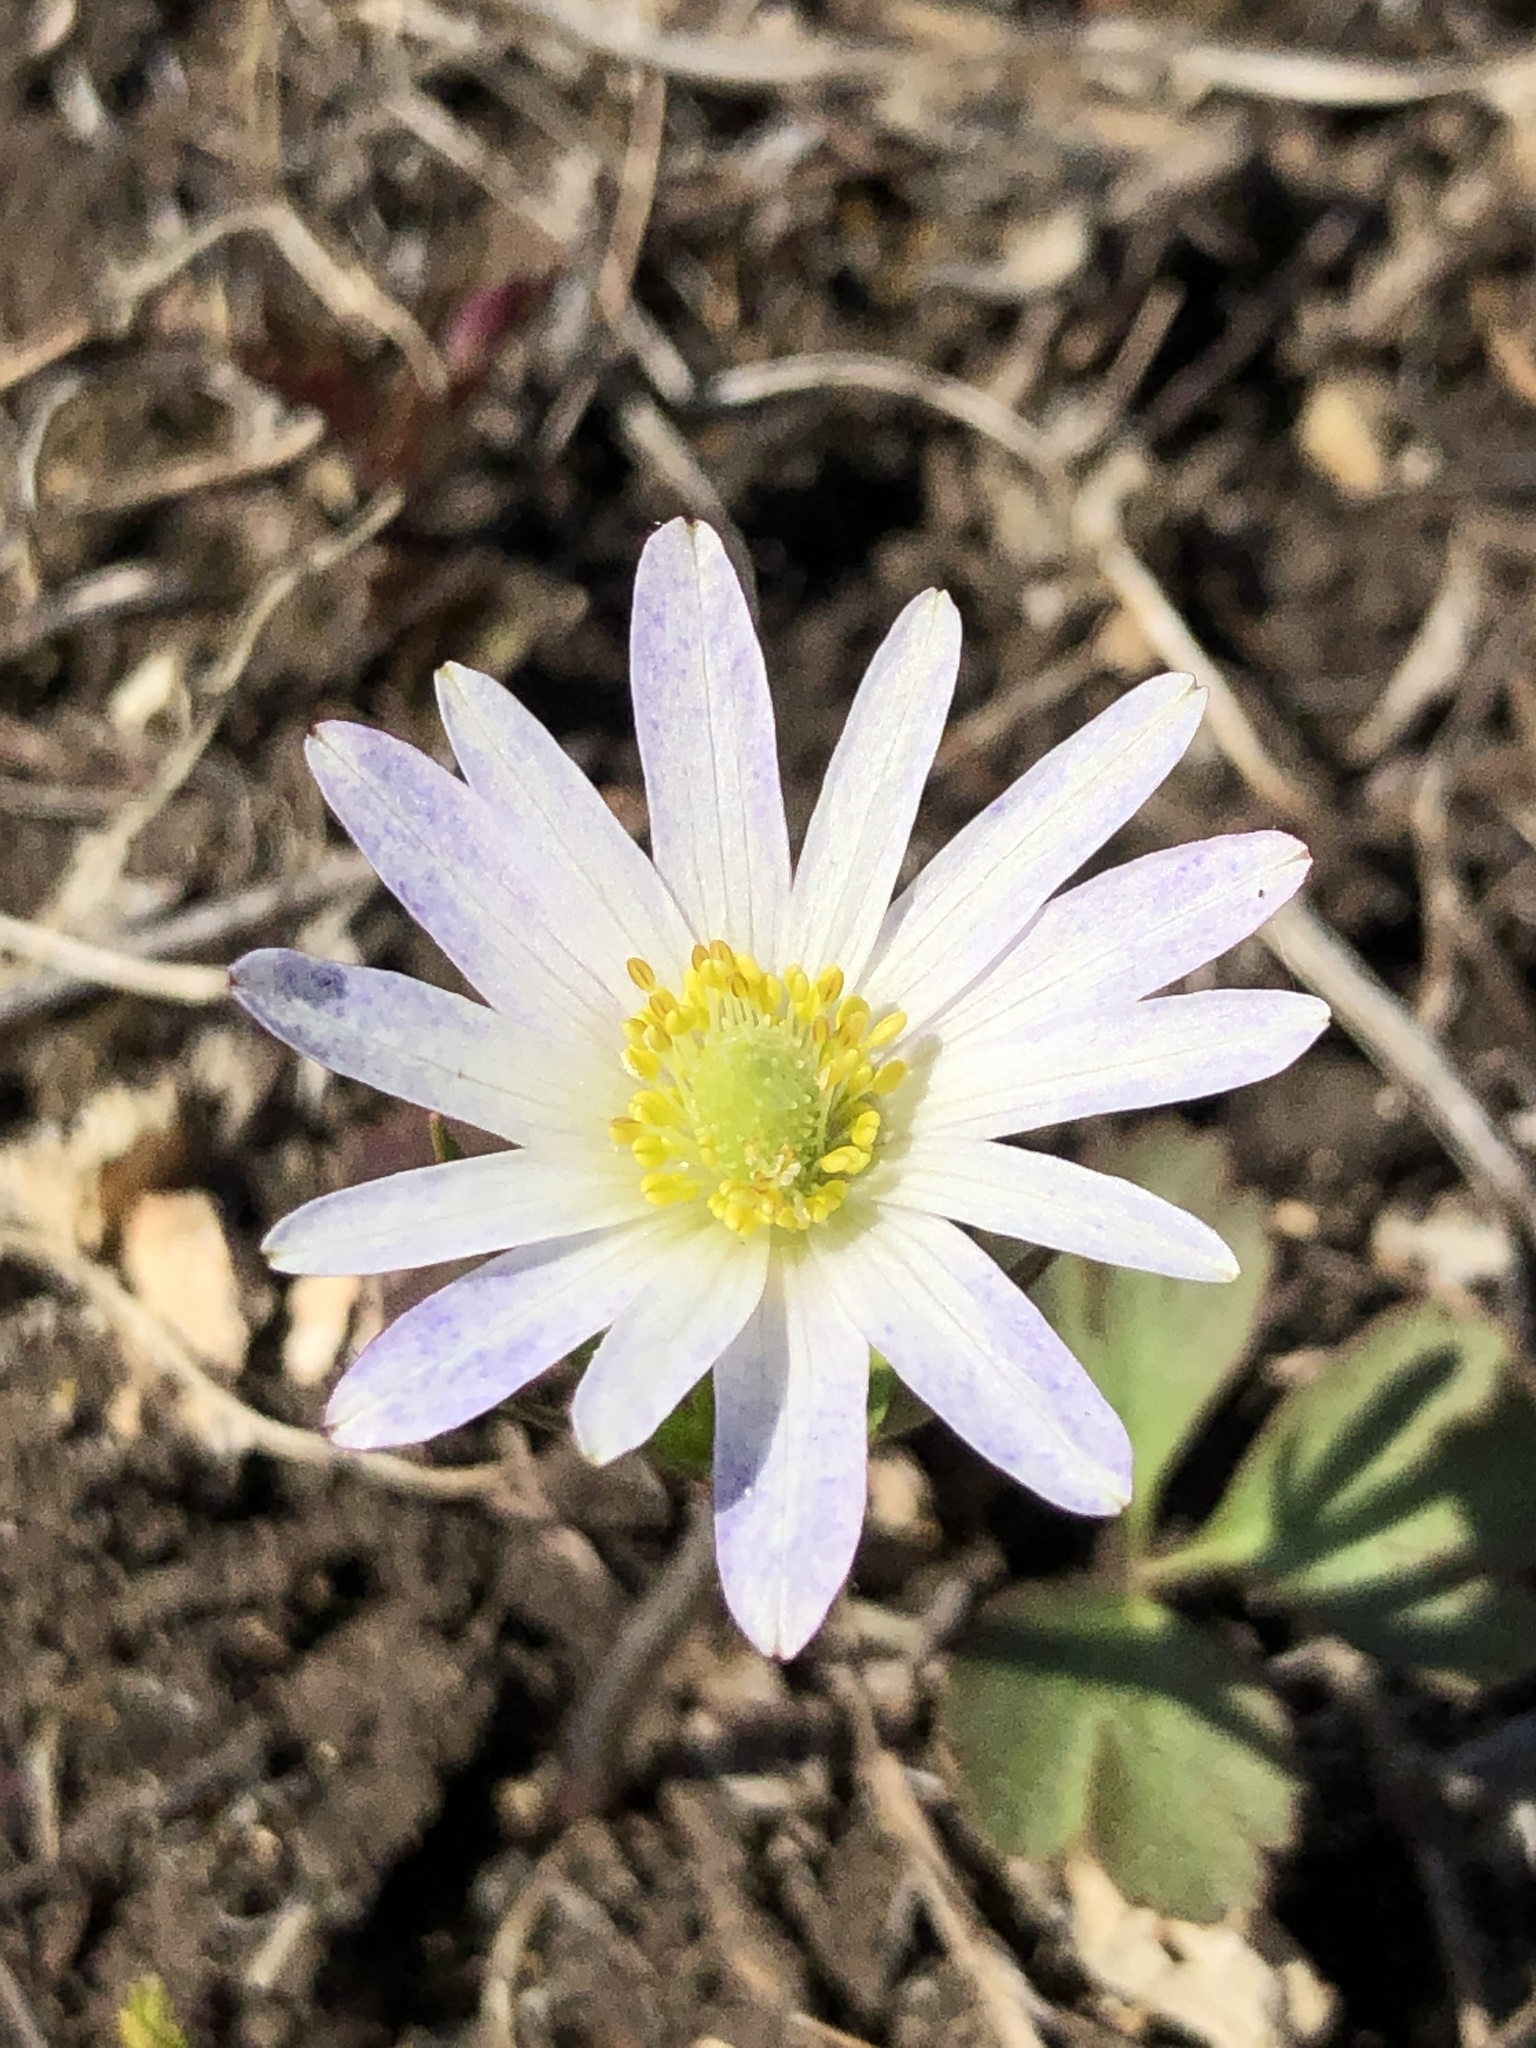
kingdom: Plantae
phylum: Tracheophyta
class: Magnoliopsida
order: Ranunculales
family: Ranunculaceae
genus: Anemone
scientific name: Anemone berlandieri
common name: Ten-petal anemone
